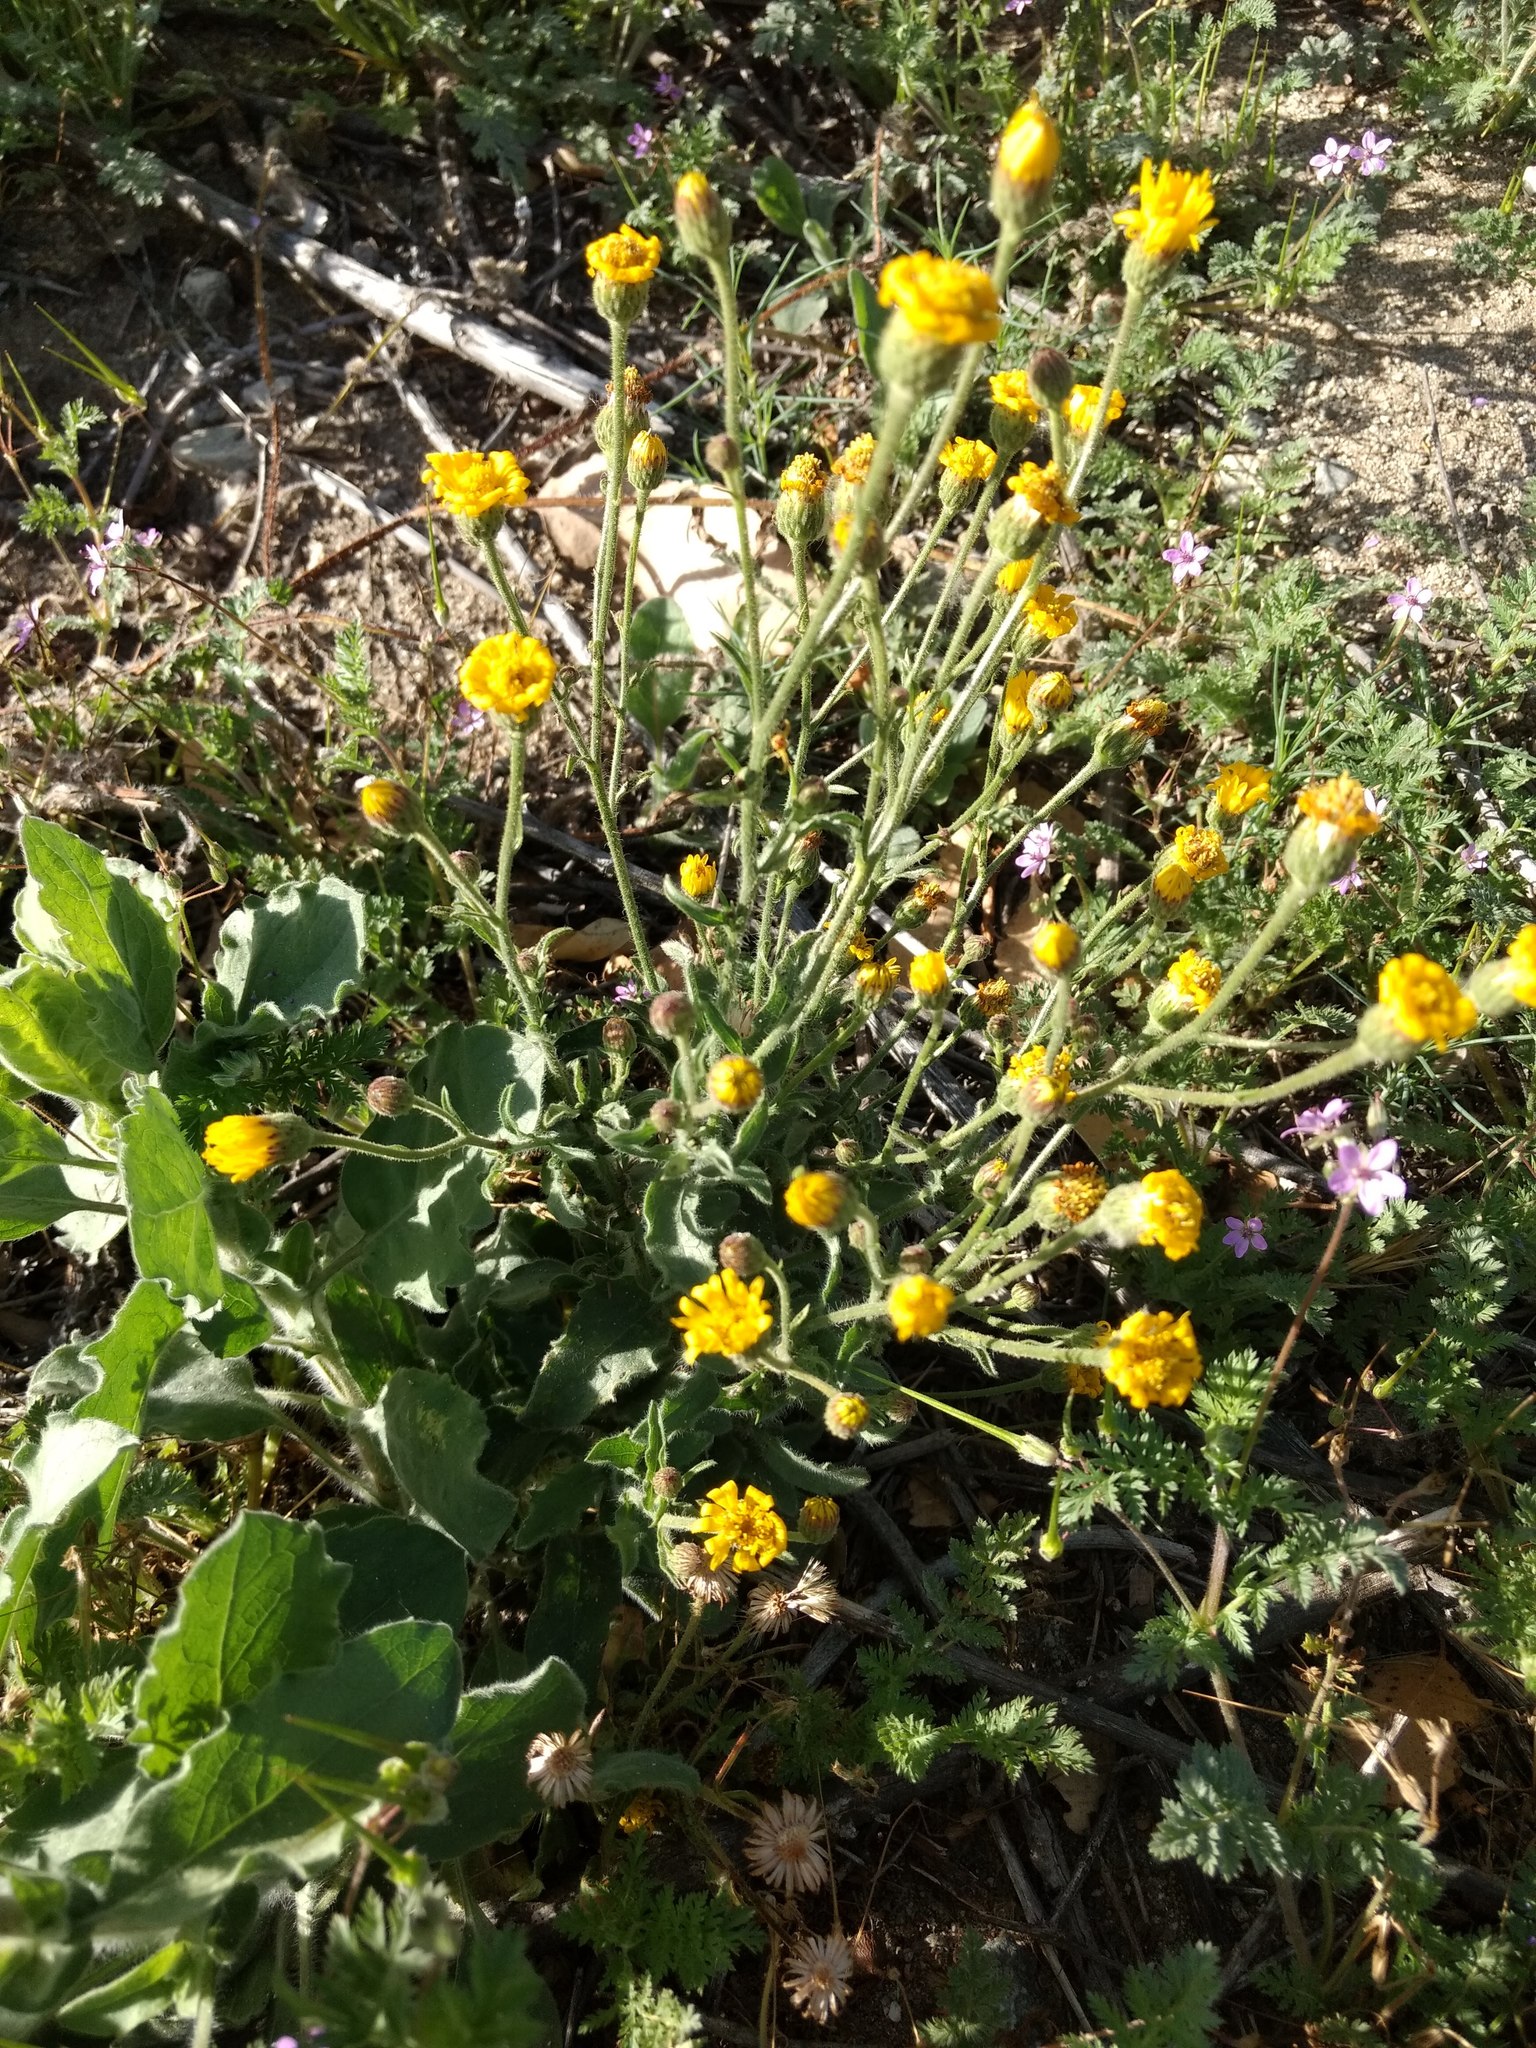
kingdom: Plantae
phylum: Tracheophyta
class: Magnoliopsida
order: Asterales
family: Asteraceae
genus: Heterotheca
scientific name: Heterotheca grandiflora
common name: Telegraphweed
